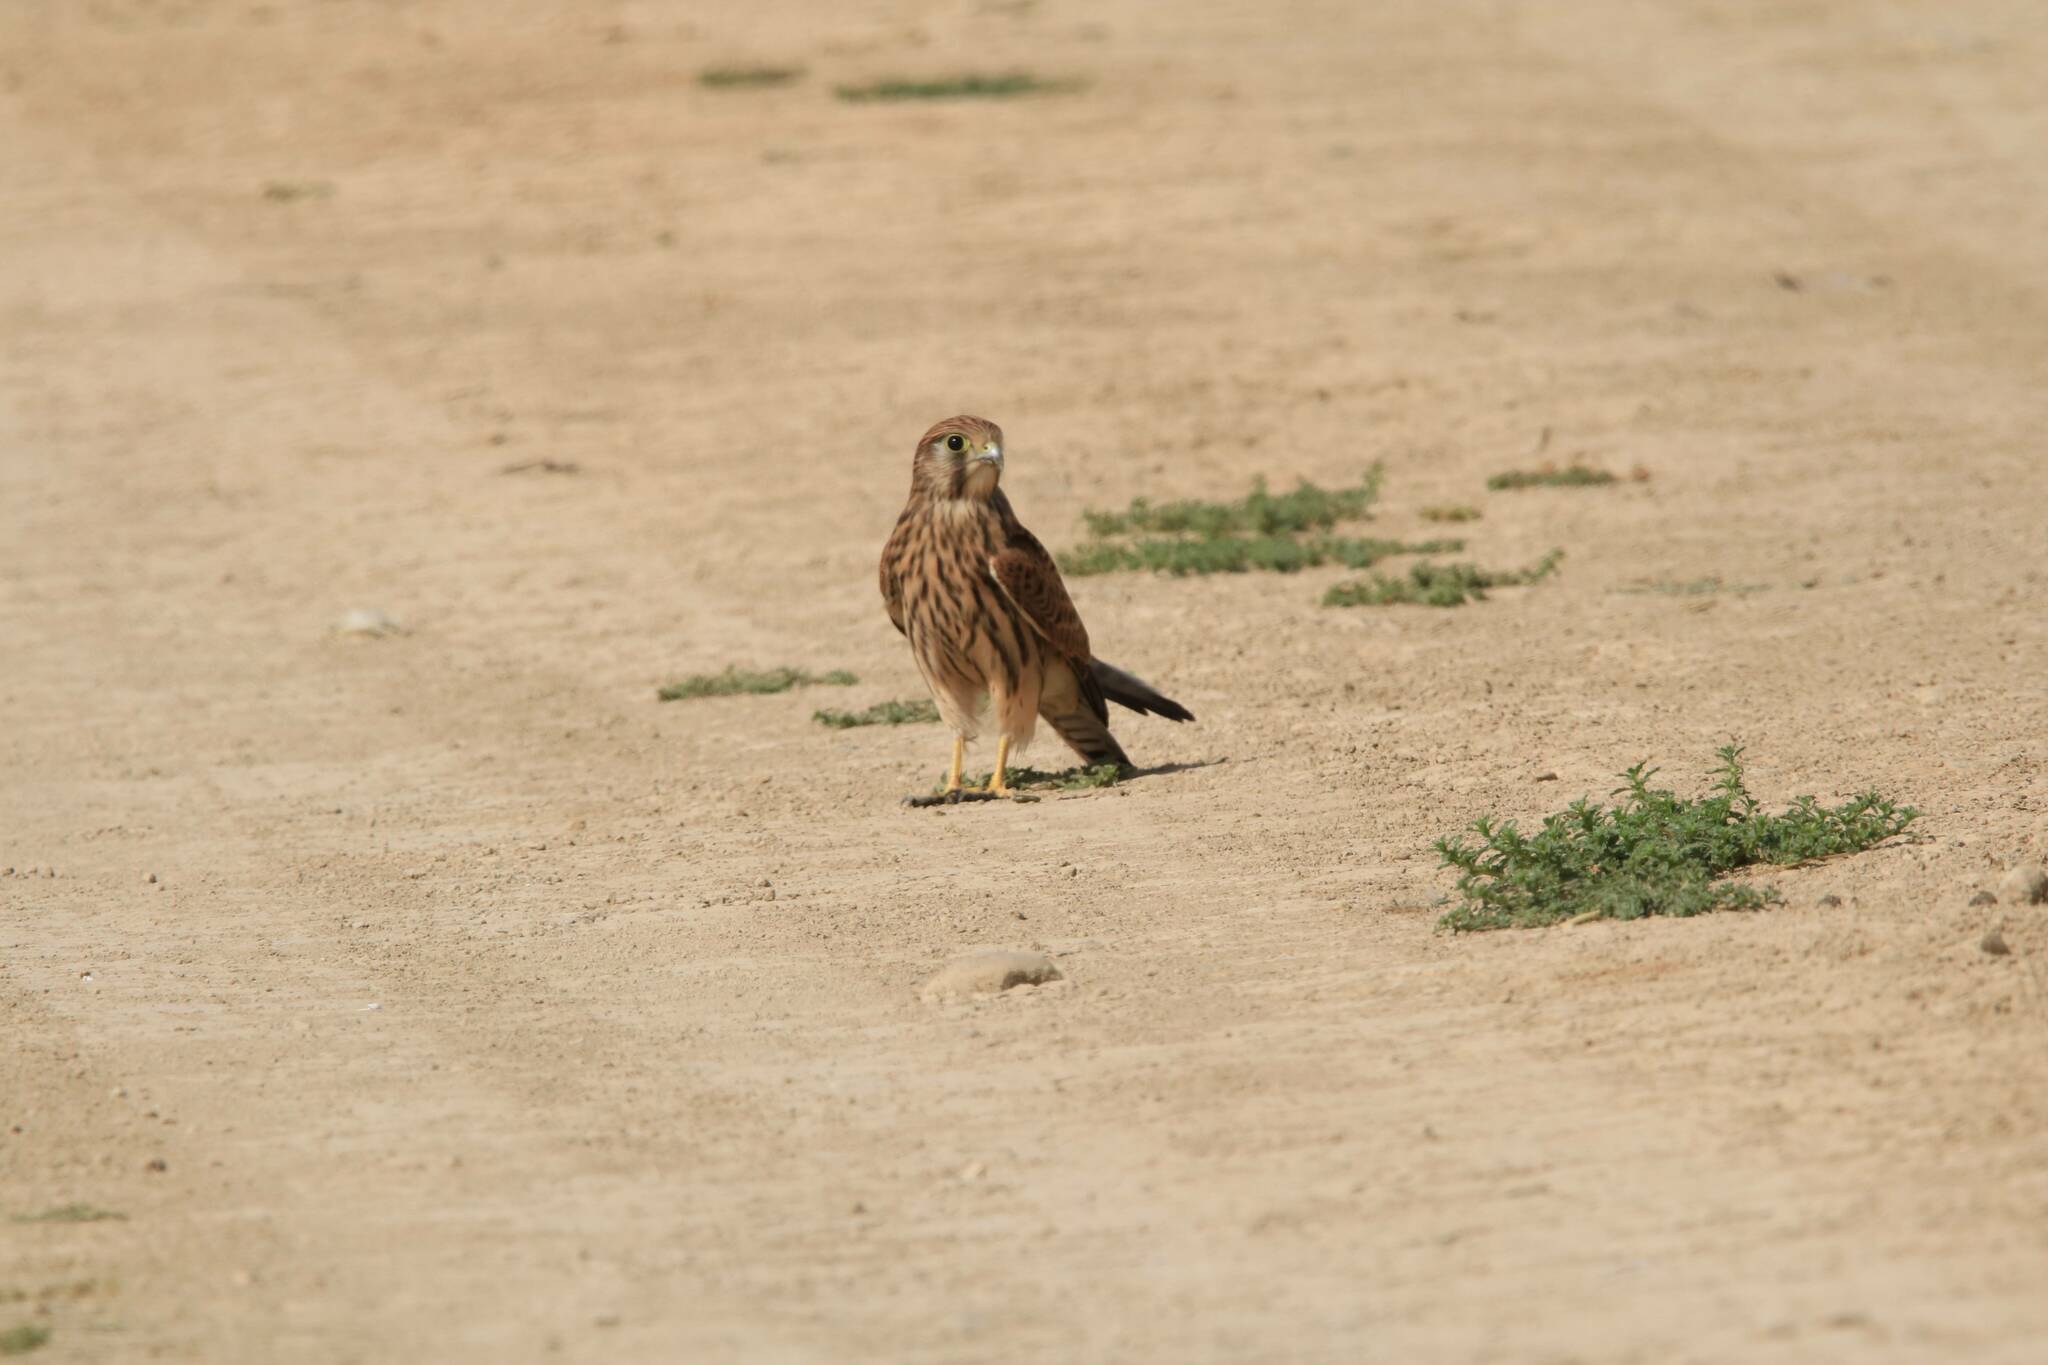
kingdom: Animalia
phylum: Chordata
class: Aves
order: Falconiformes
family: Falconidae
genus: Falco
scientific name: Falco tinnunculus
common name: Common kestrel
